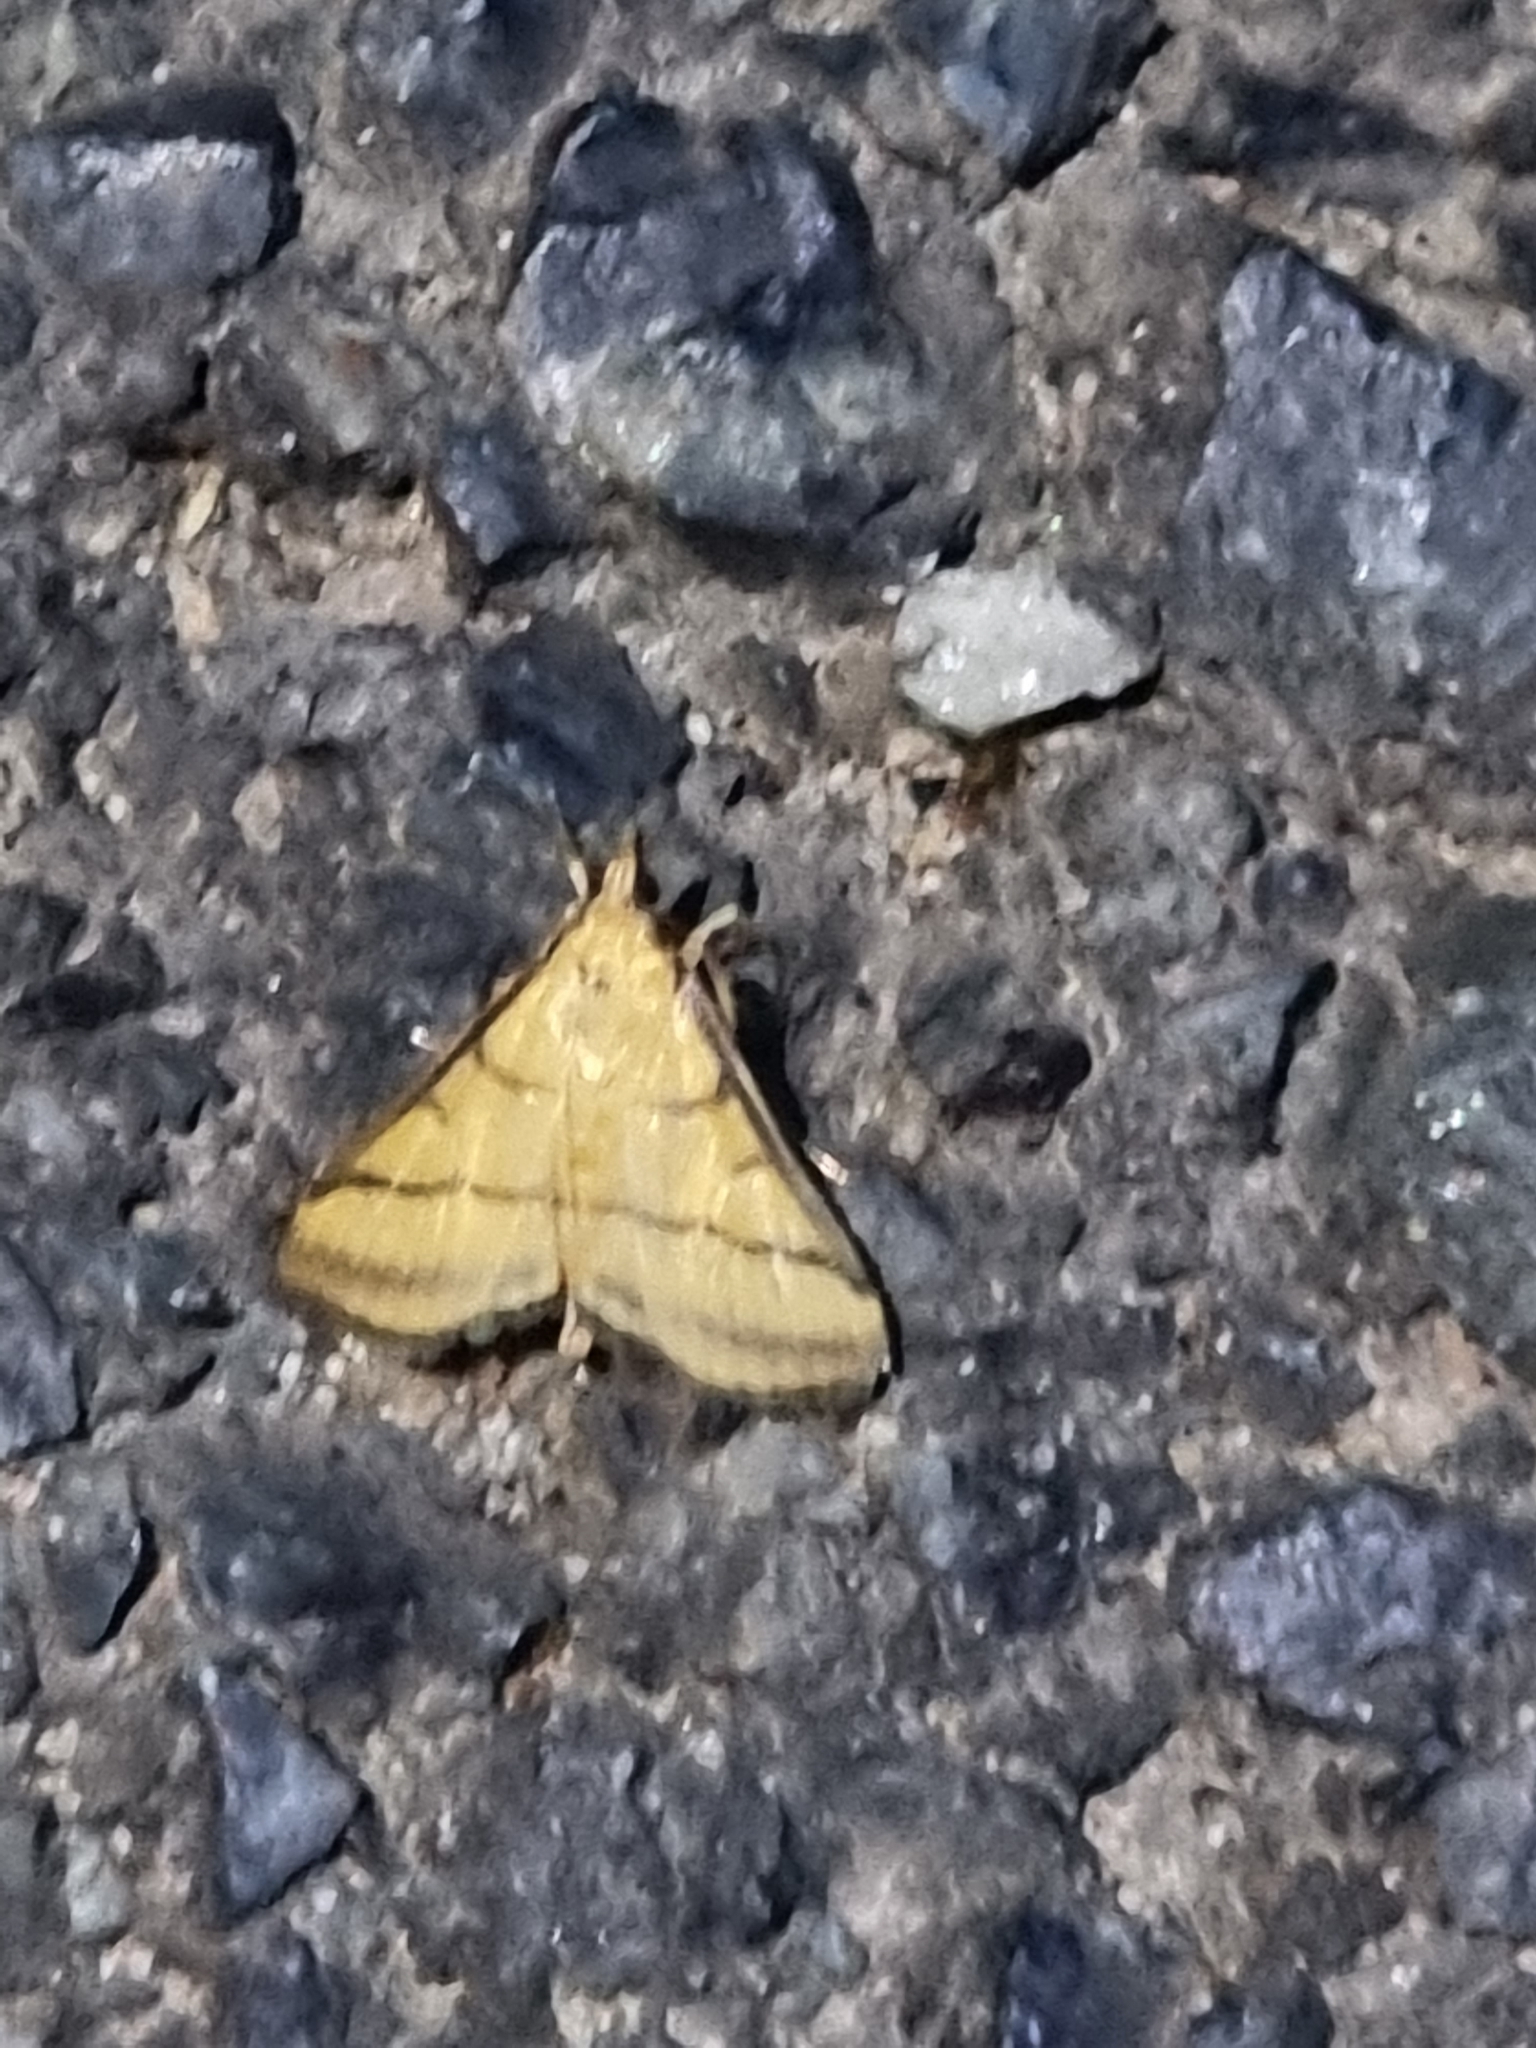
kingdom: Animalia
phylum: Arthropoda
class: Insecta
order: Lepidoptera
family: Crambidae
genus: Cnaphalocrocis
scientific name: Cnaphalocrocis medinalis
